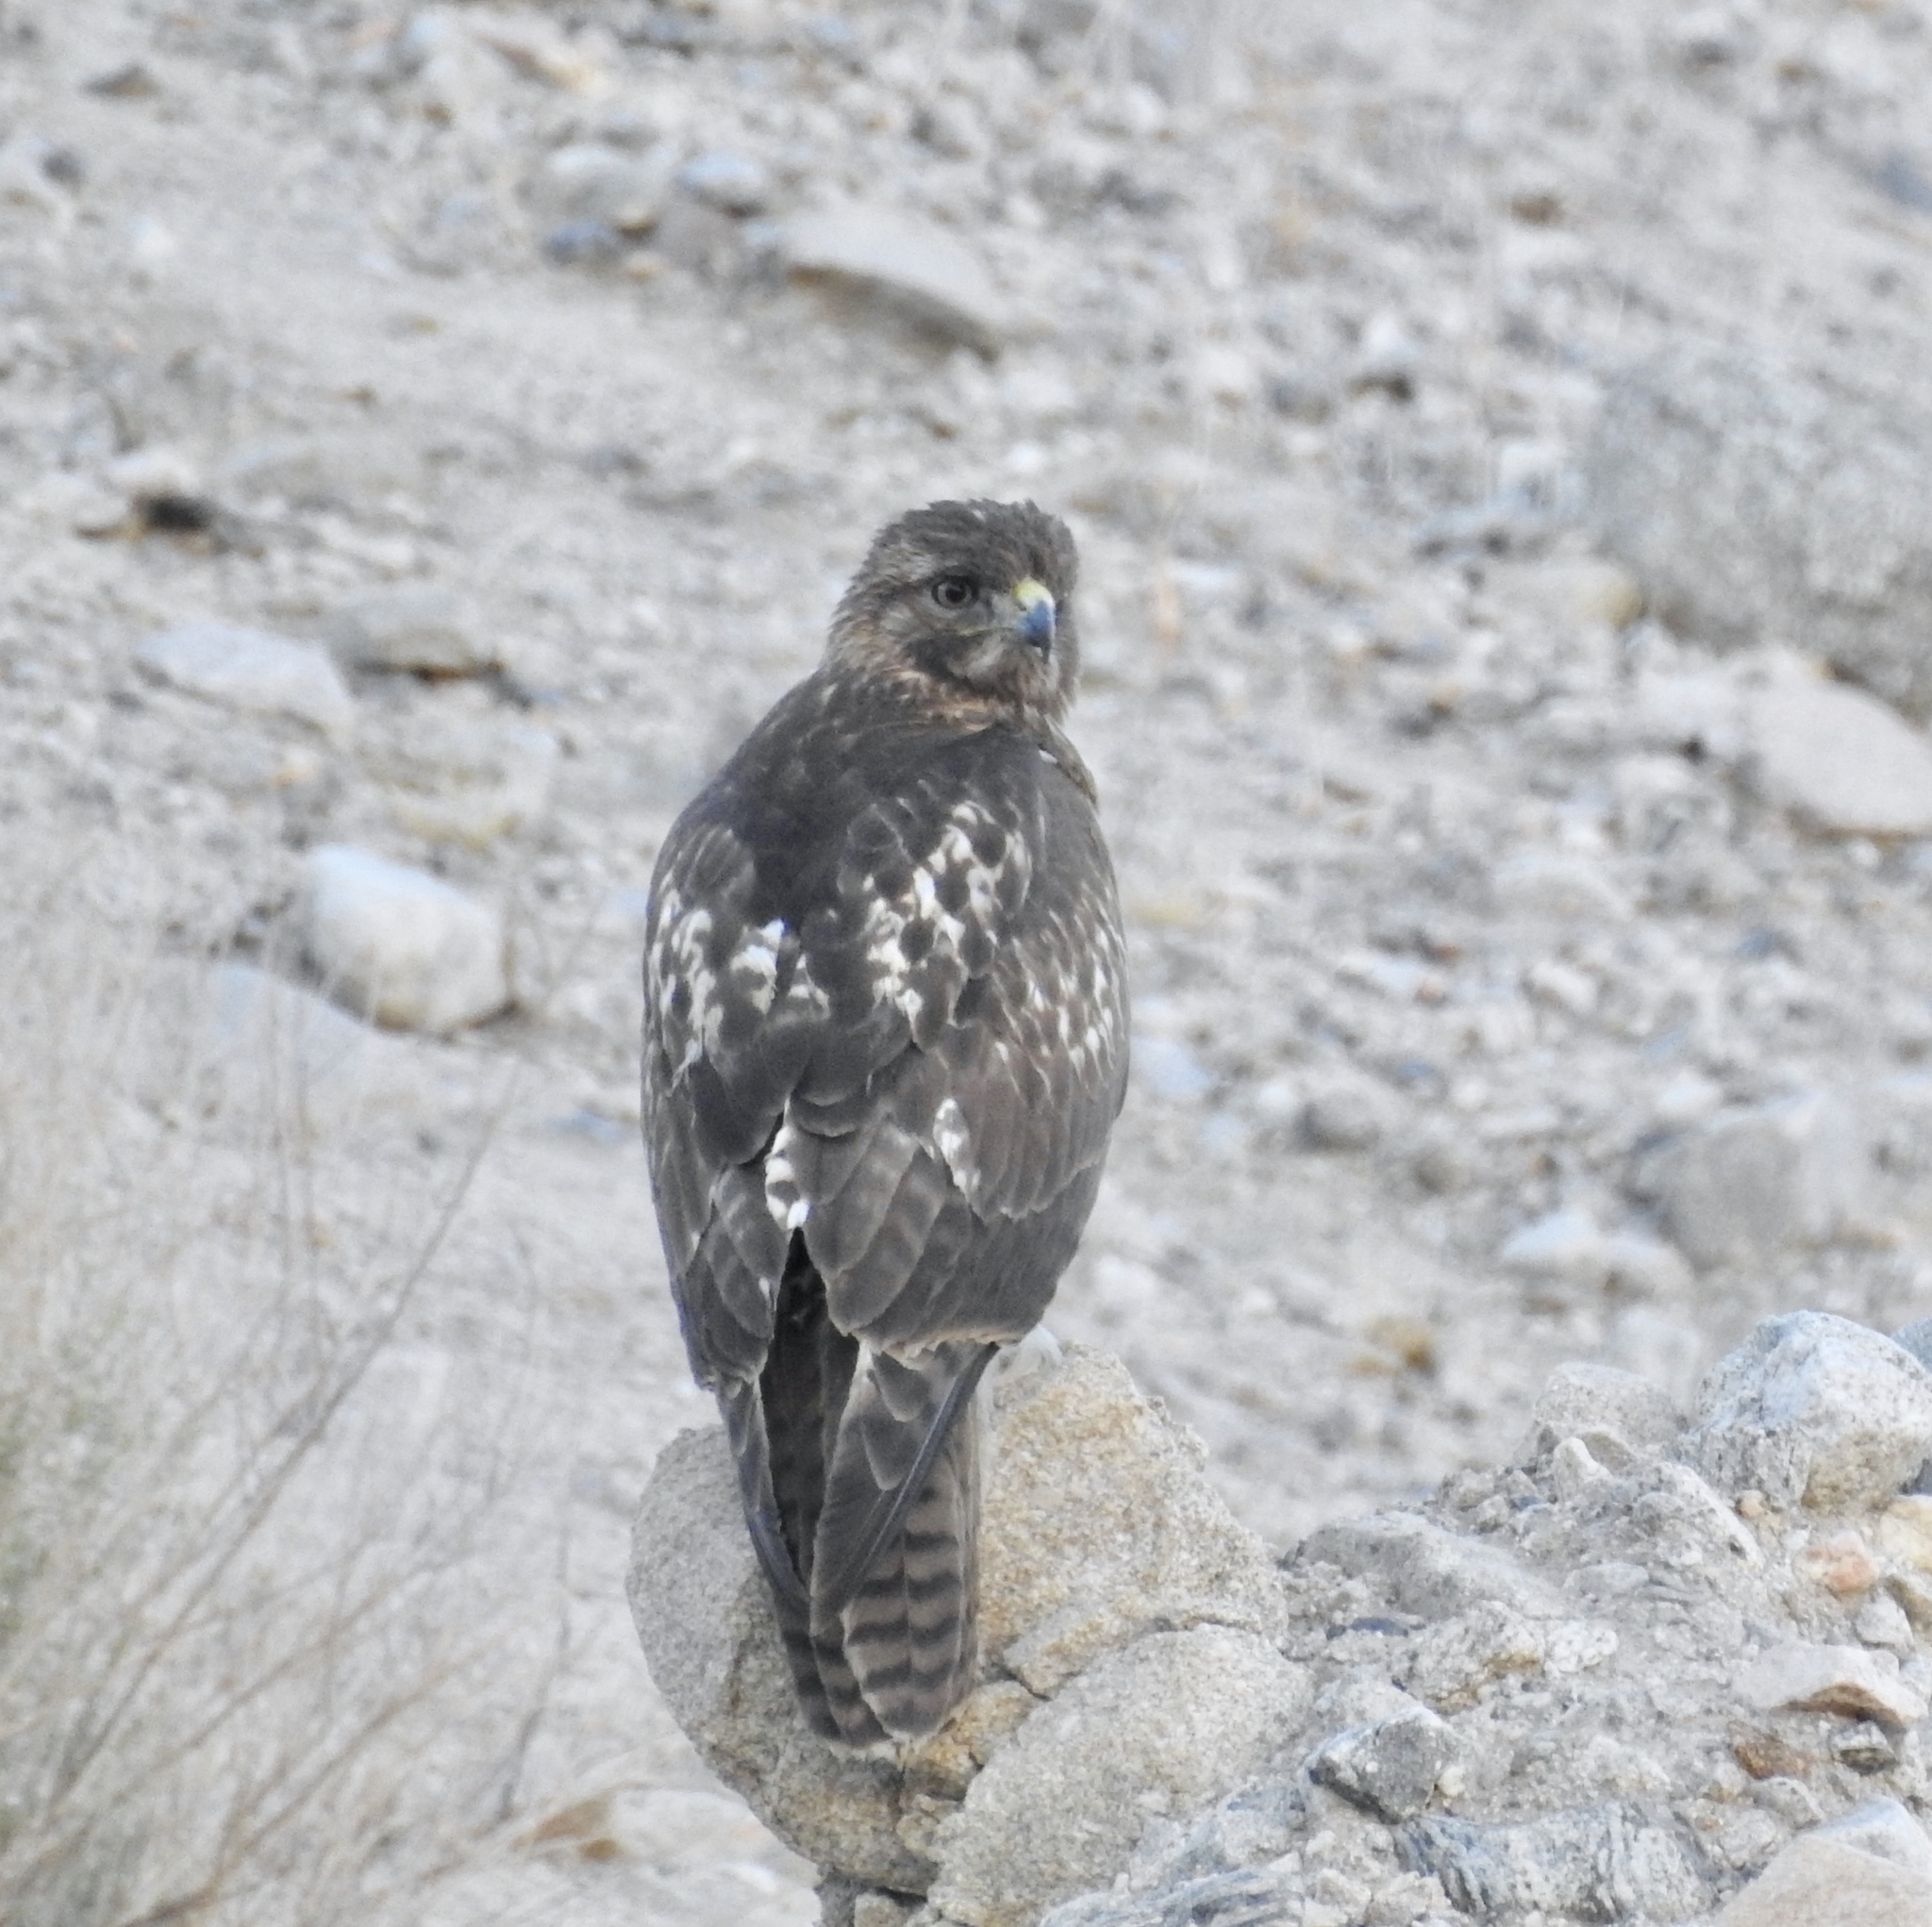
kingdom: Animalia
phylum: Chordata
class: Aves
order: Accipitriformes
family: Accipitridae
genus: Buteo
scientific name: Buteo jamaicensis
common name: Red-tailed hawk
